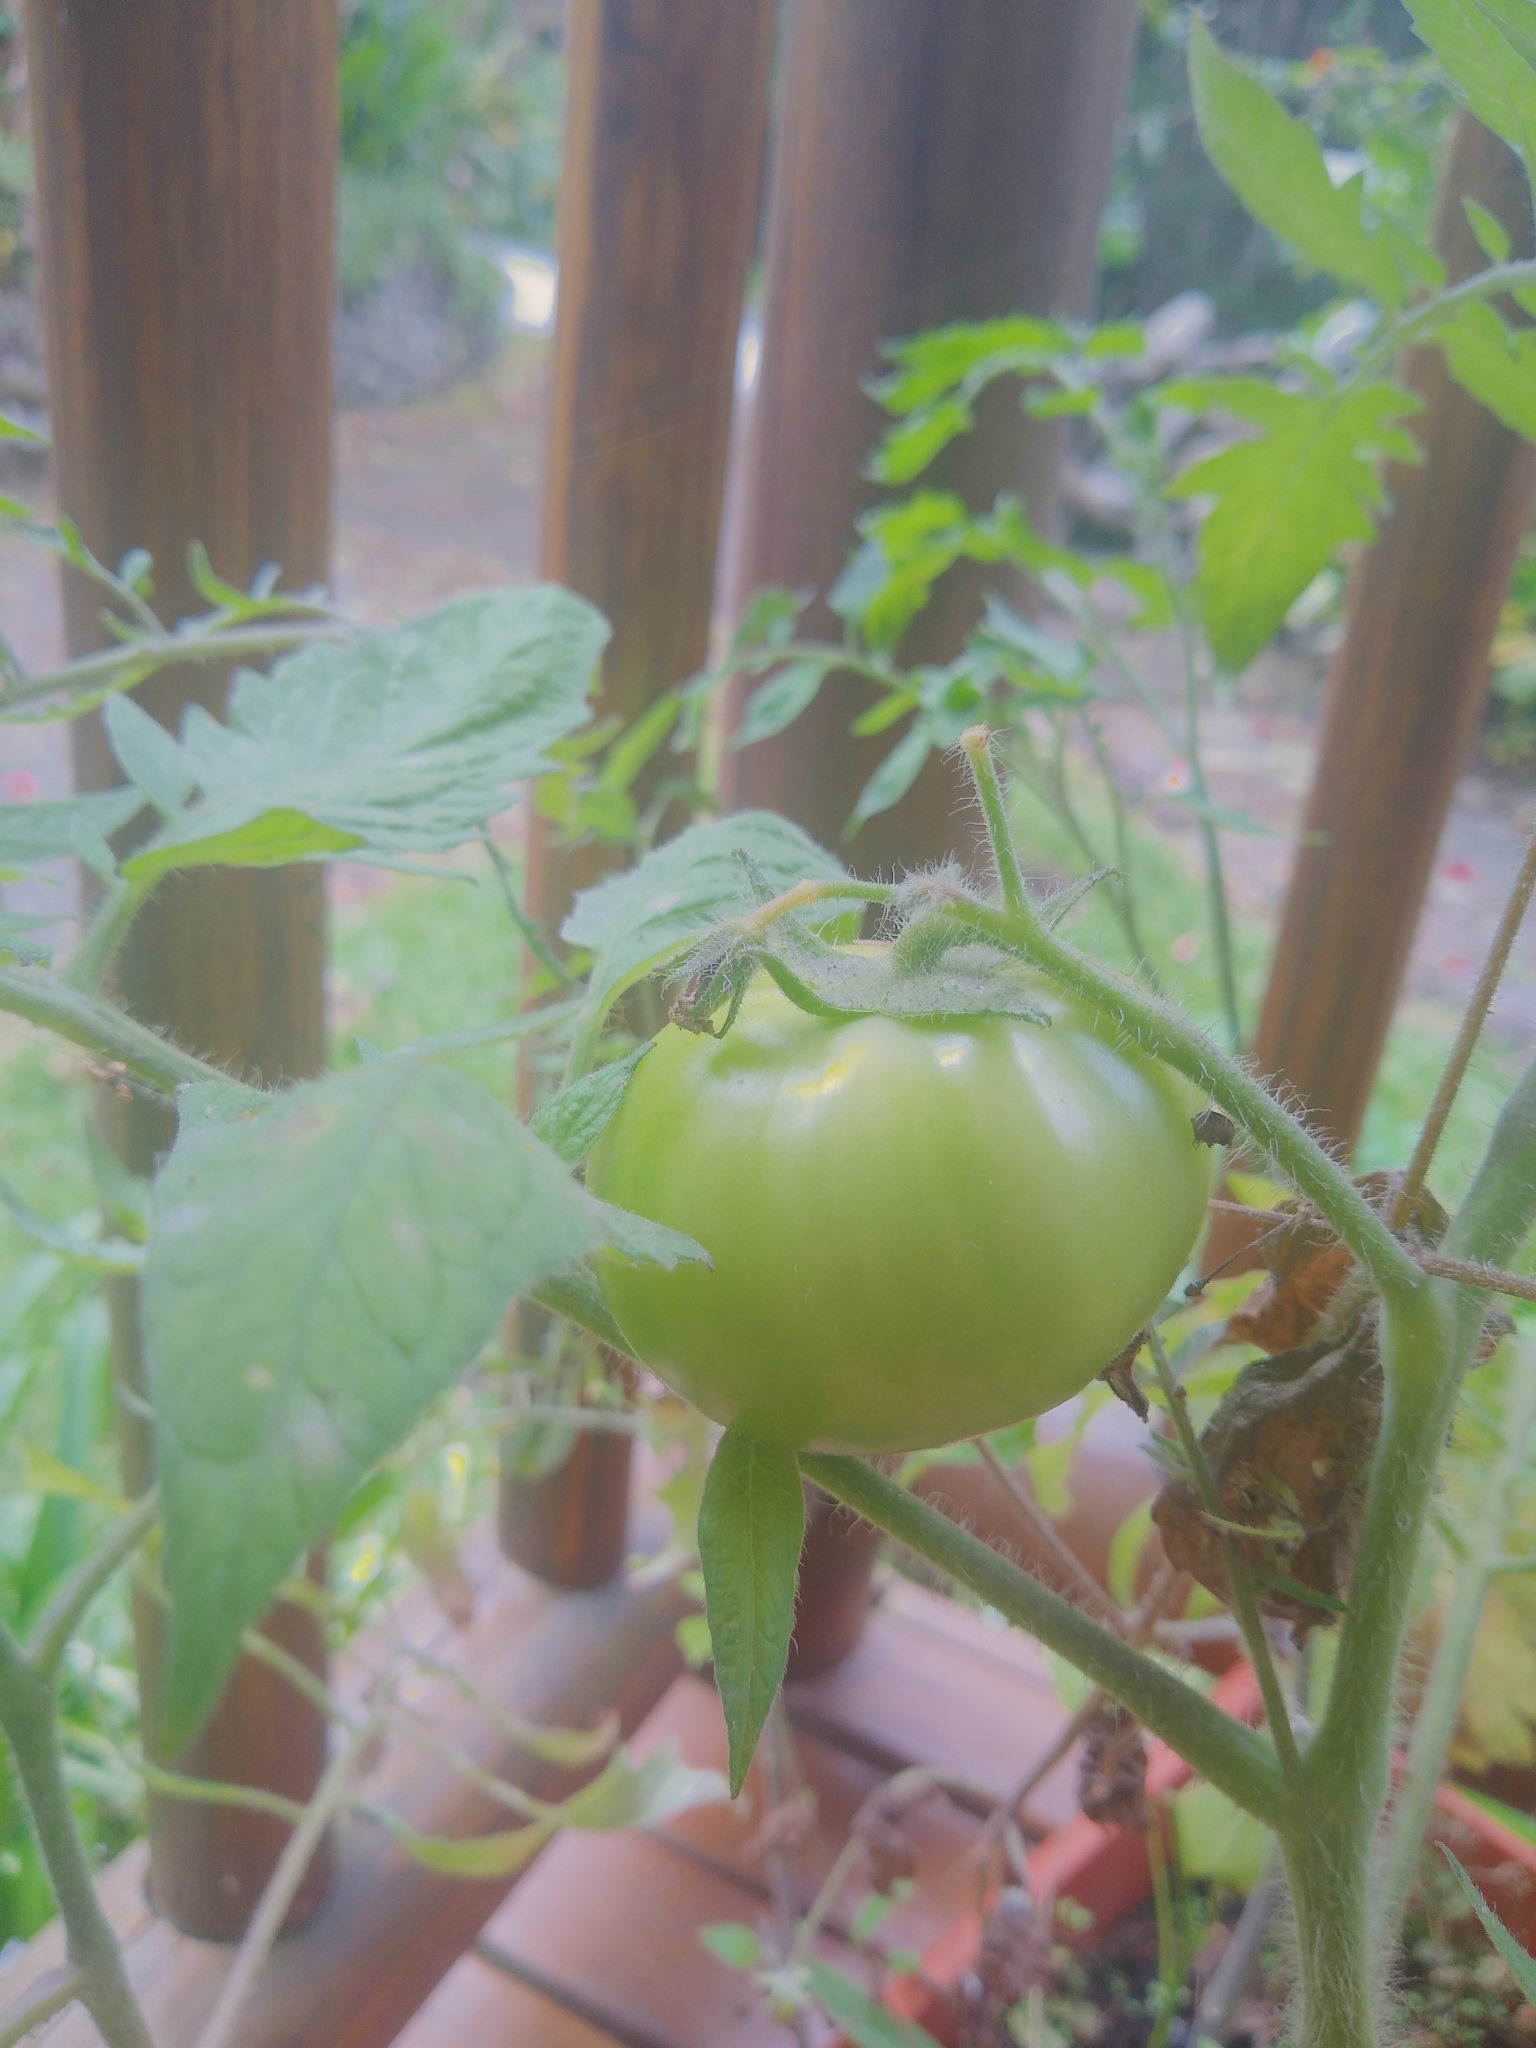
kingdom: Plantae
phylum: Tracheophyta
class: Magnoliopsida
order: Solanales
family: Solanaceae
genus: Solanum
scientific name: Solanum lycopersicum
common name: Garden tomato
